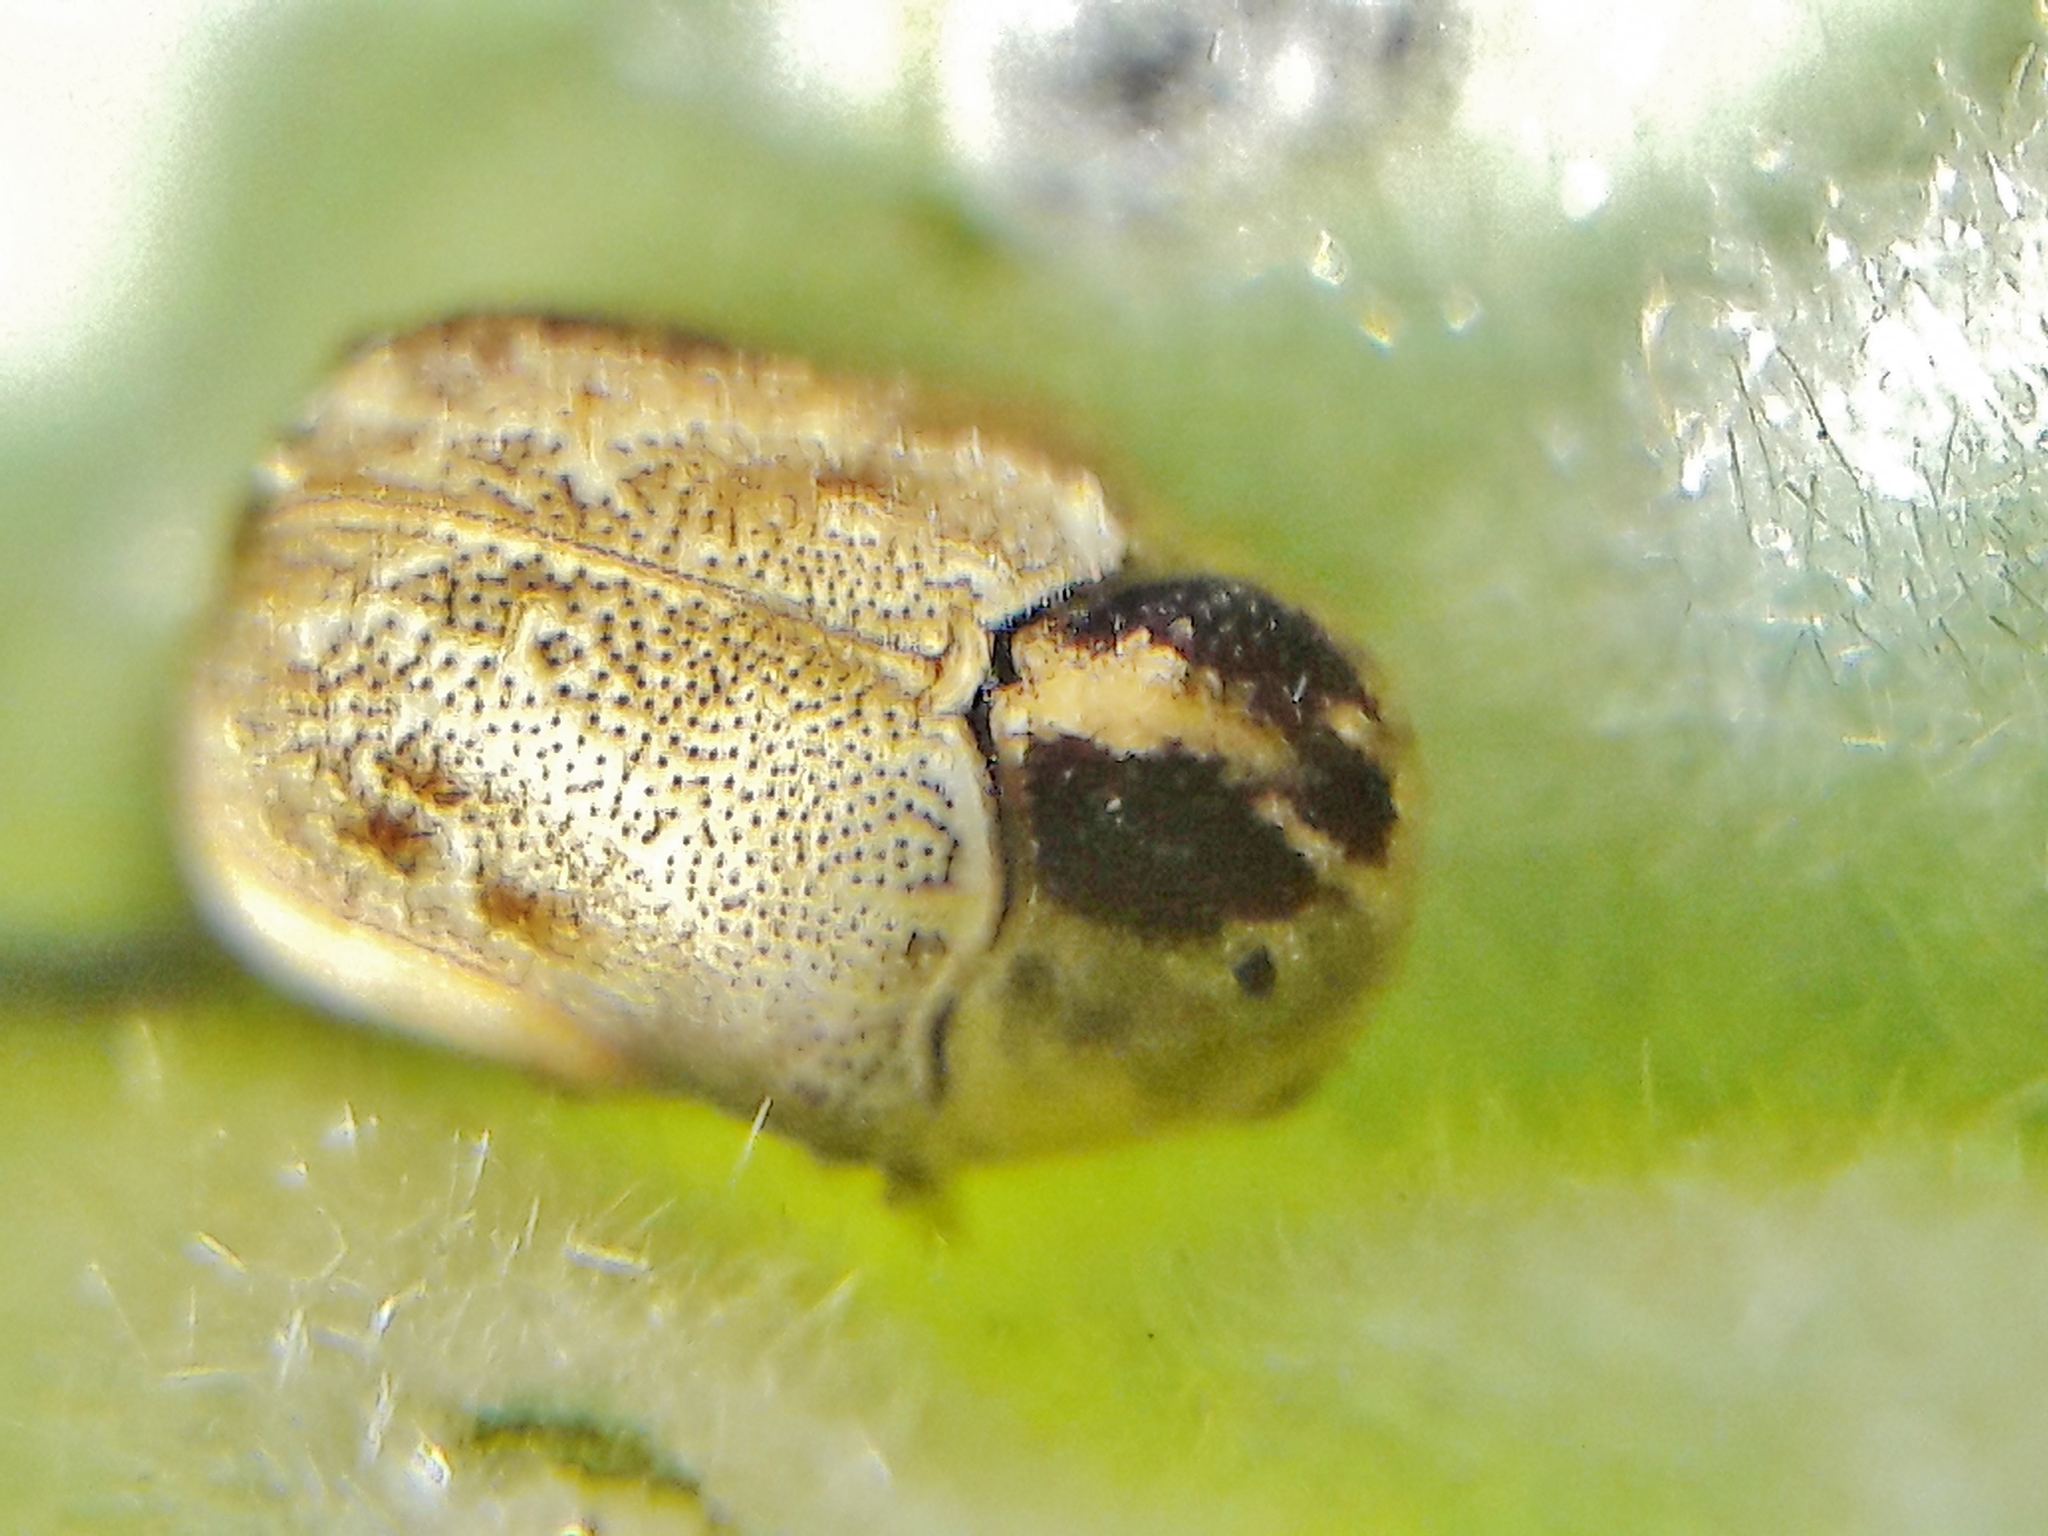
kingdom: Animalia
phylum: Arthropoda
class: Insecta
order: Coleoptera
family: Chrysomelidae
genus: Chlamisus
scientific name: Chlamisus
